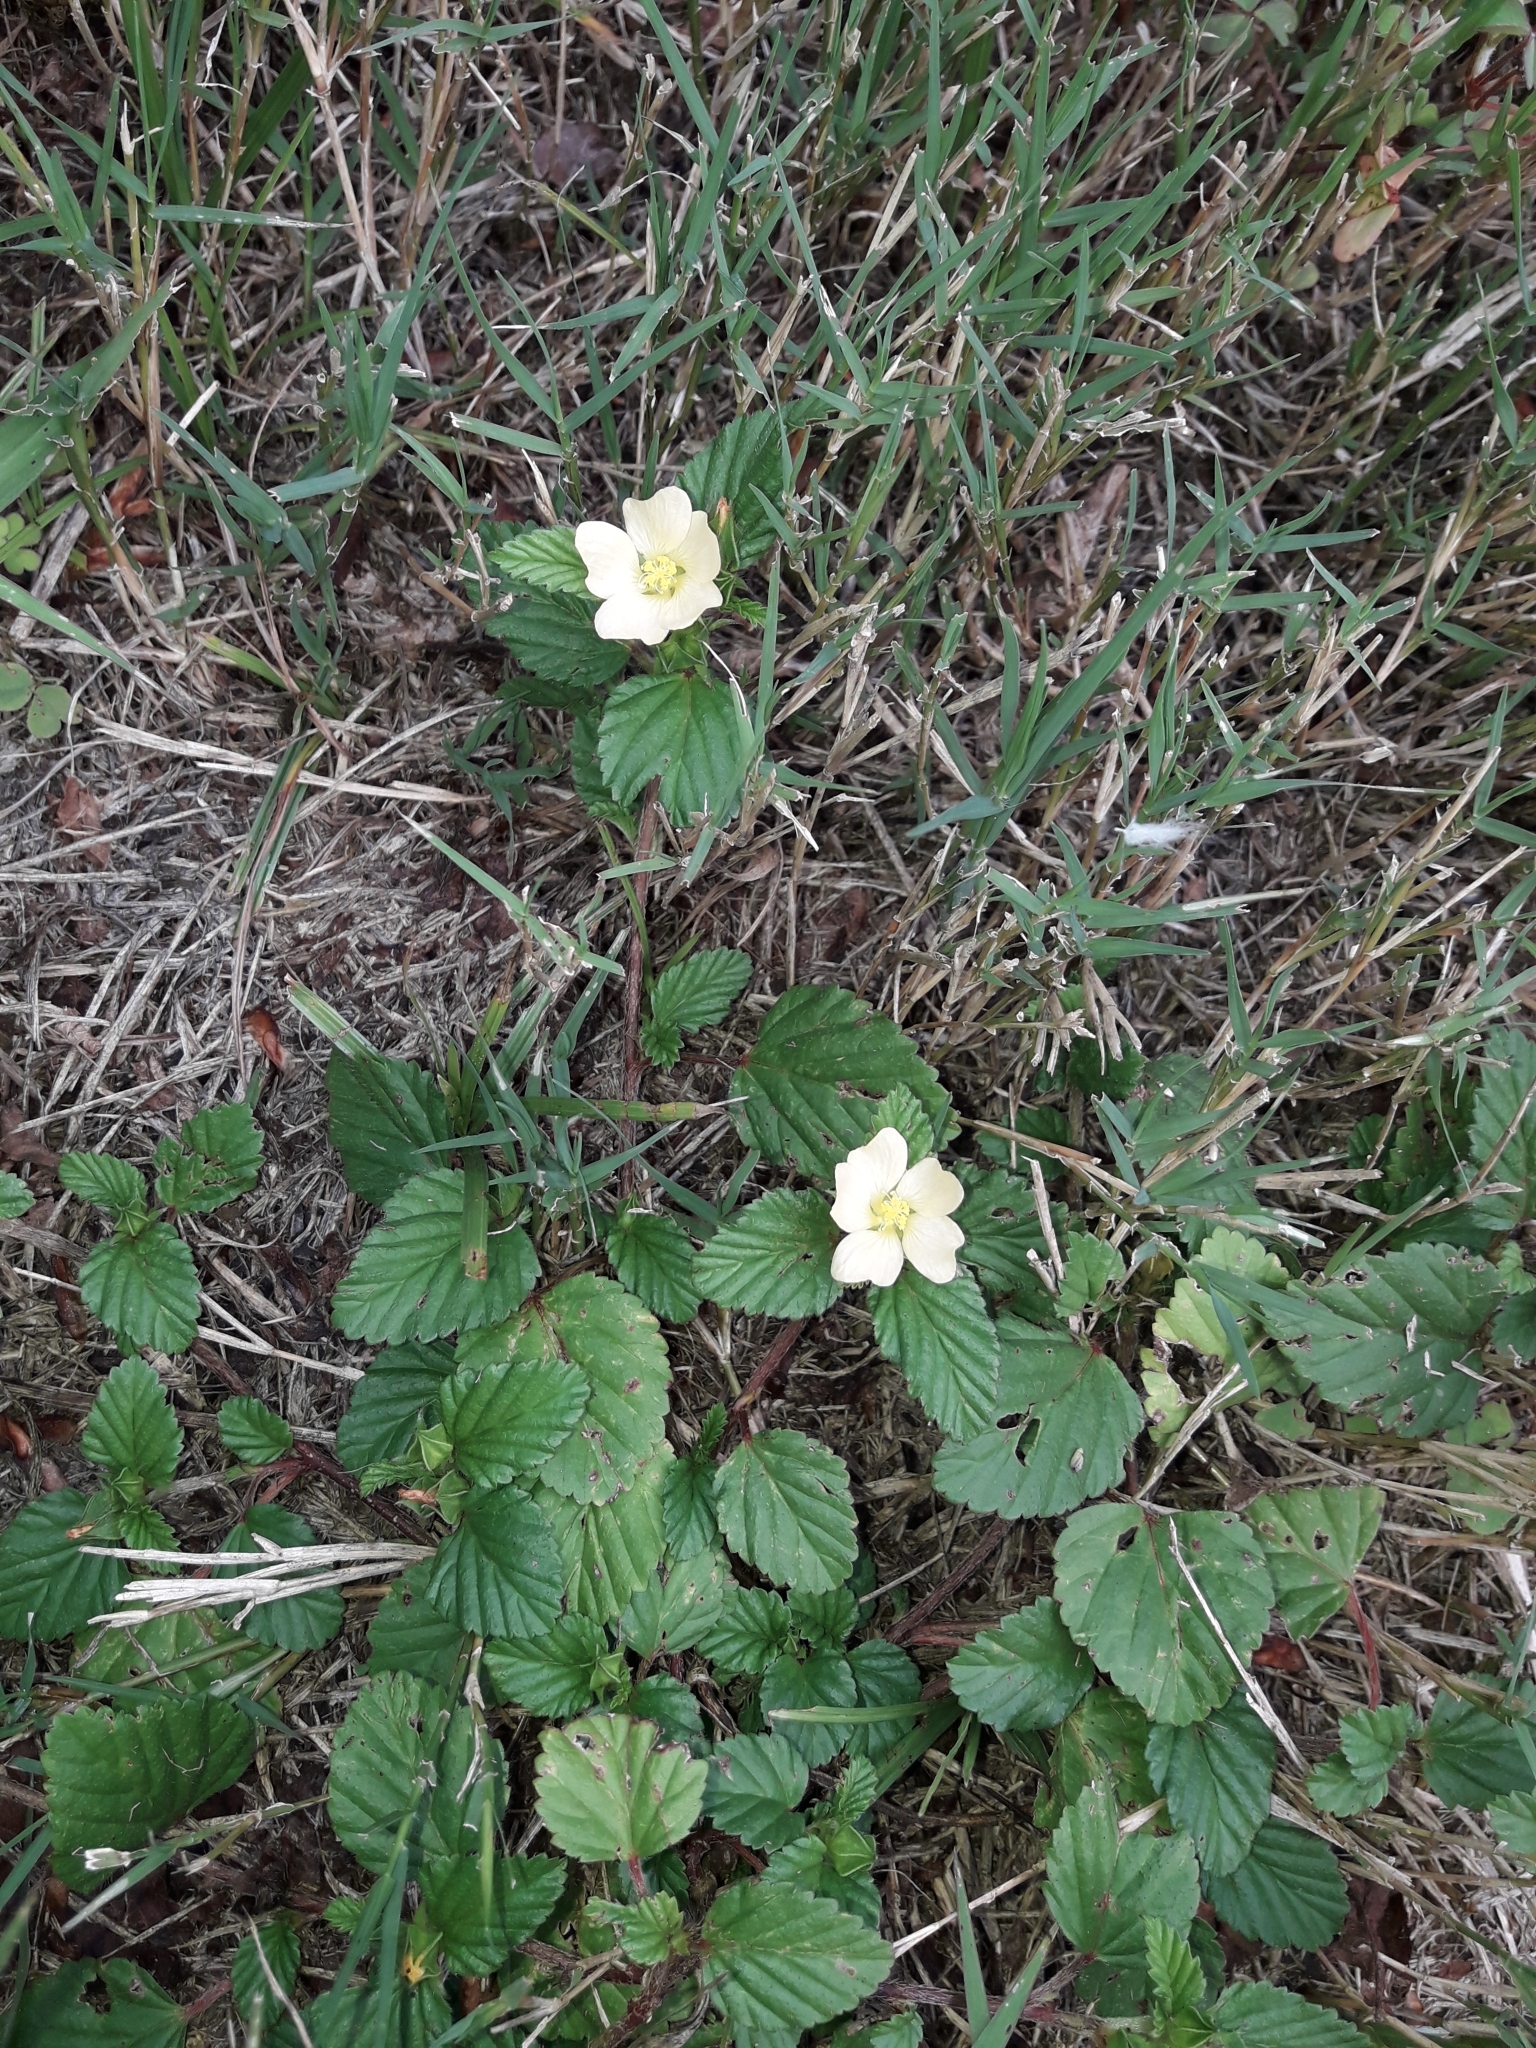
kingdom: Plantae
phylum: Tracheophyta
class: Magnoliopsida
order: Malvales
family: Malvaceae
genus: Malvastrum
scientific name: Malvastrum coromandelianum
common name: Threelobe false mallow
